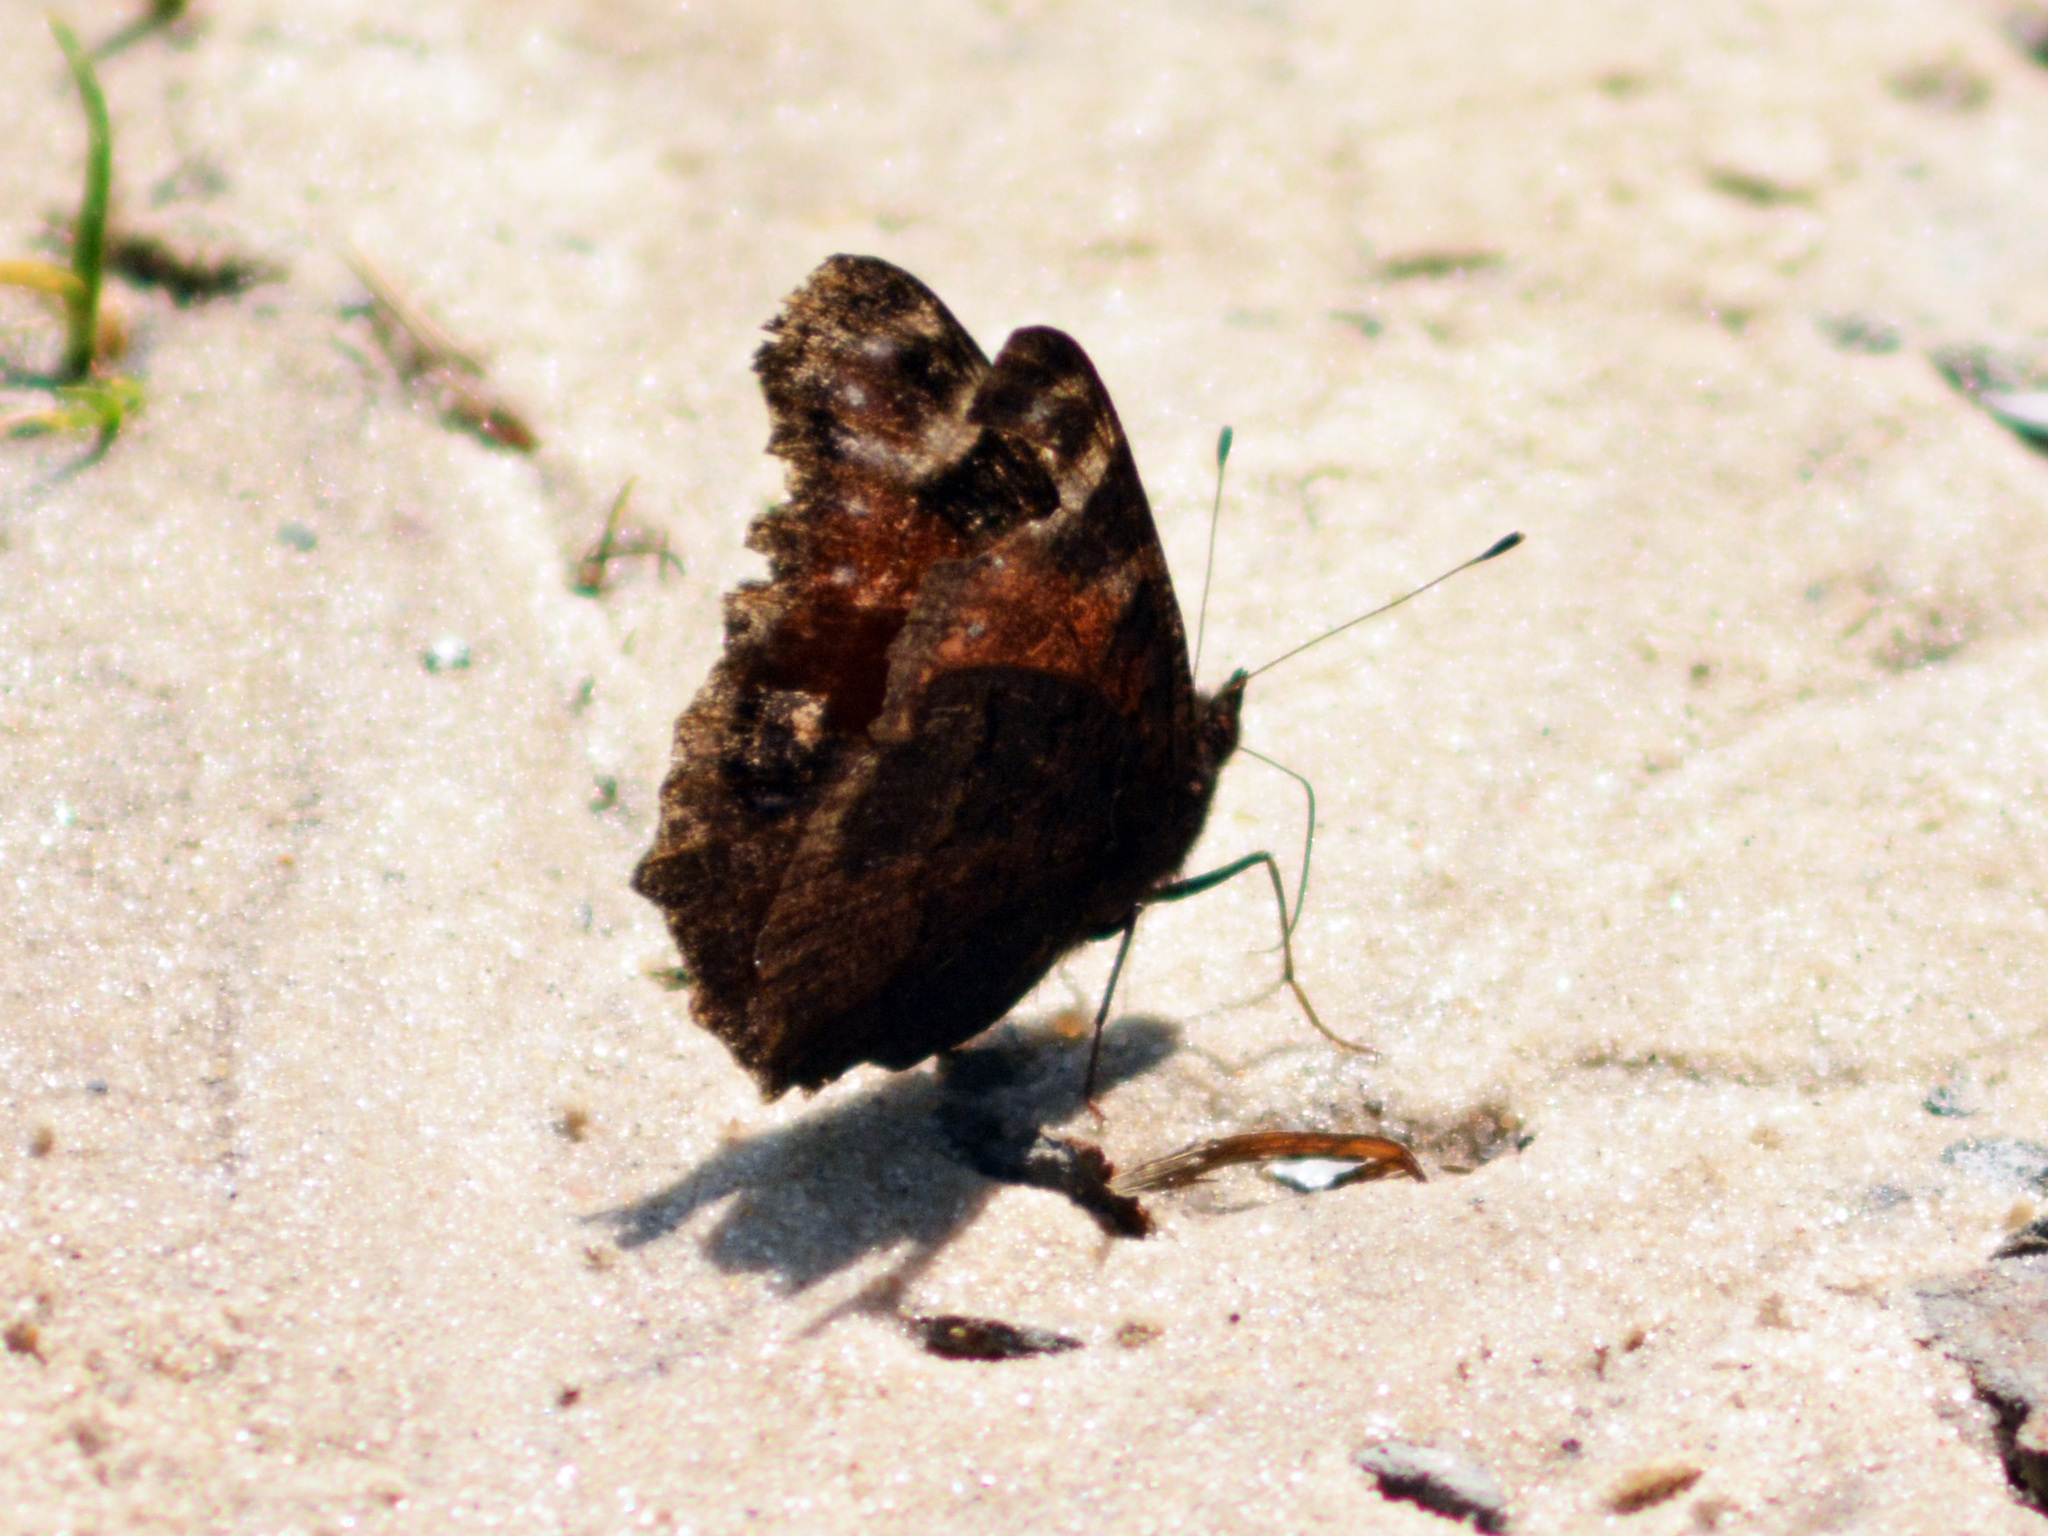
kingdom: Animalia
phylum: Arthropoda
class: Insecta
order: Lepidoptera
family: Nymphalidae
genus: Aglais
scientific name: Aglais io
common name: Peacock
